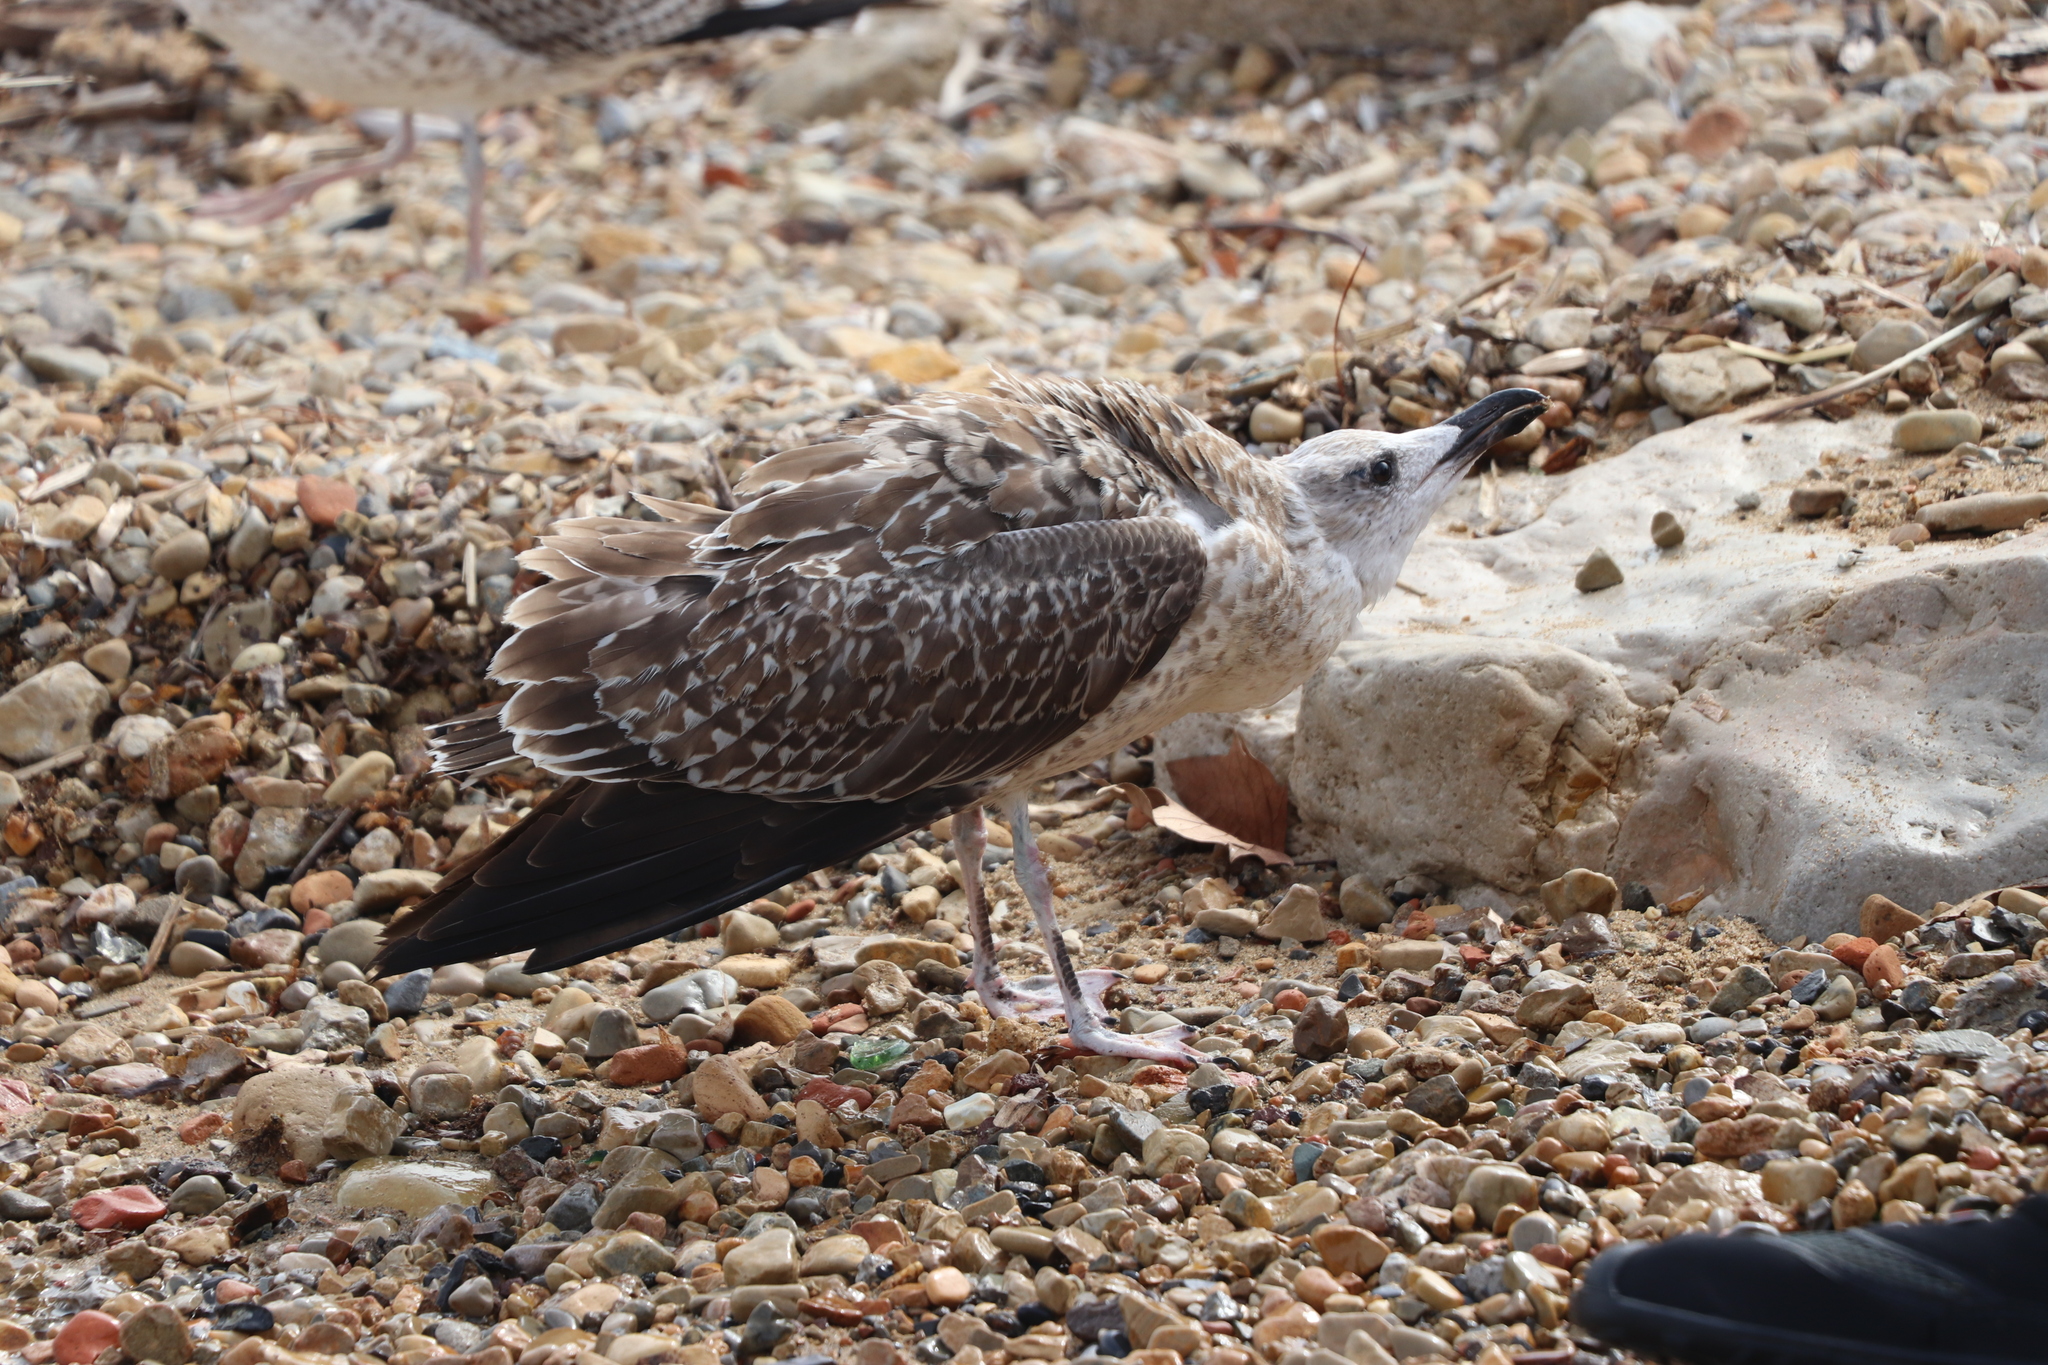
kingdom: Animalia
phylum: Chordata
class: Aves
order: Charadriiformes
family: Laridae
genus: Larus
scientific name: Larus michahellis
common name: Yellow-legged gull
